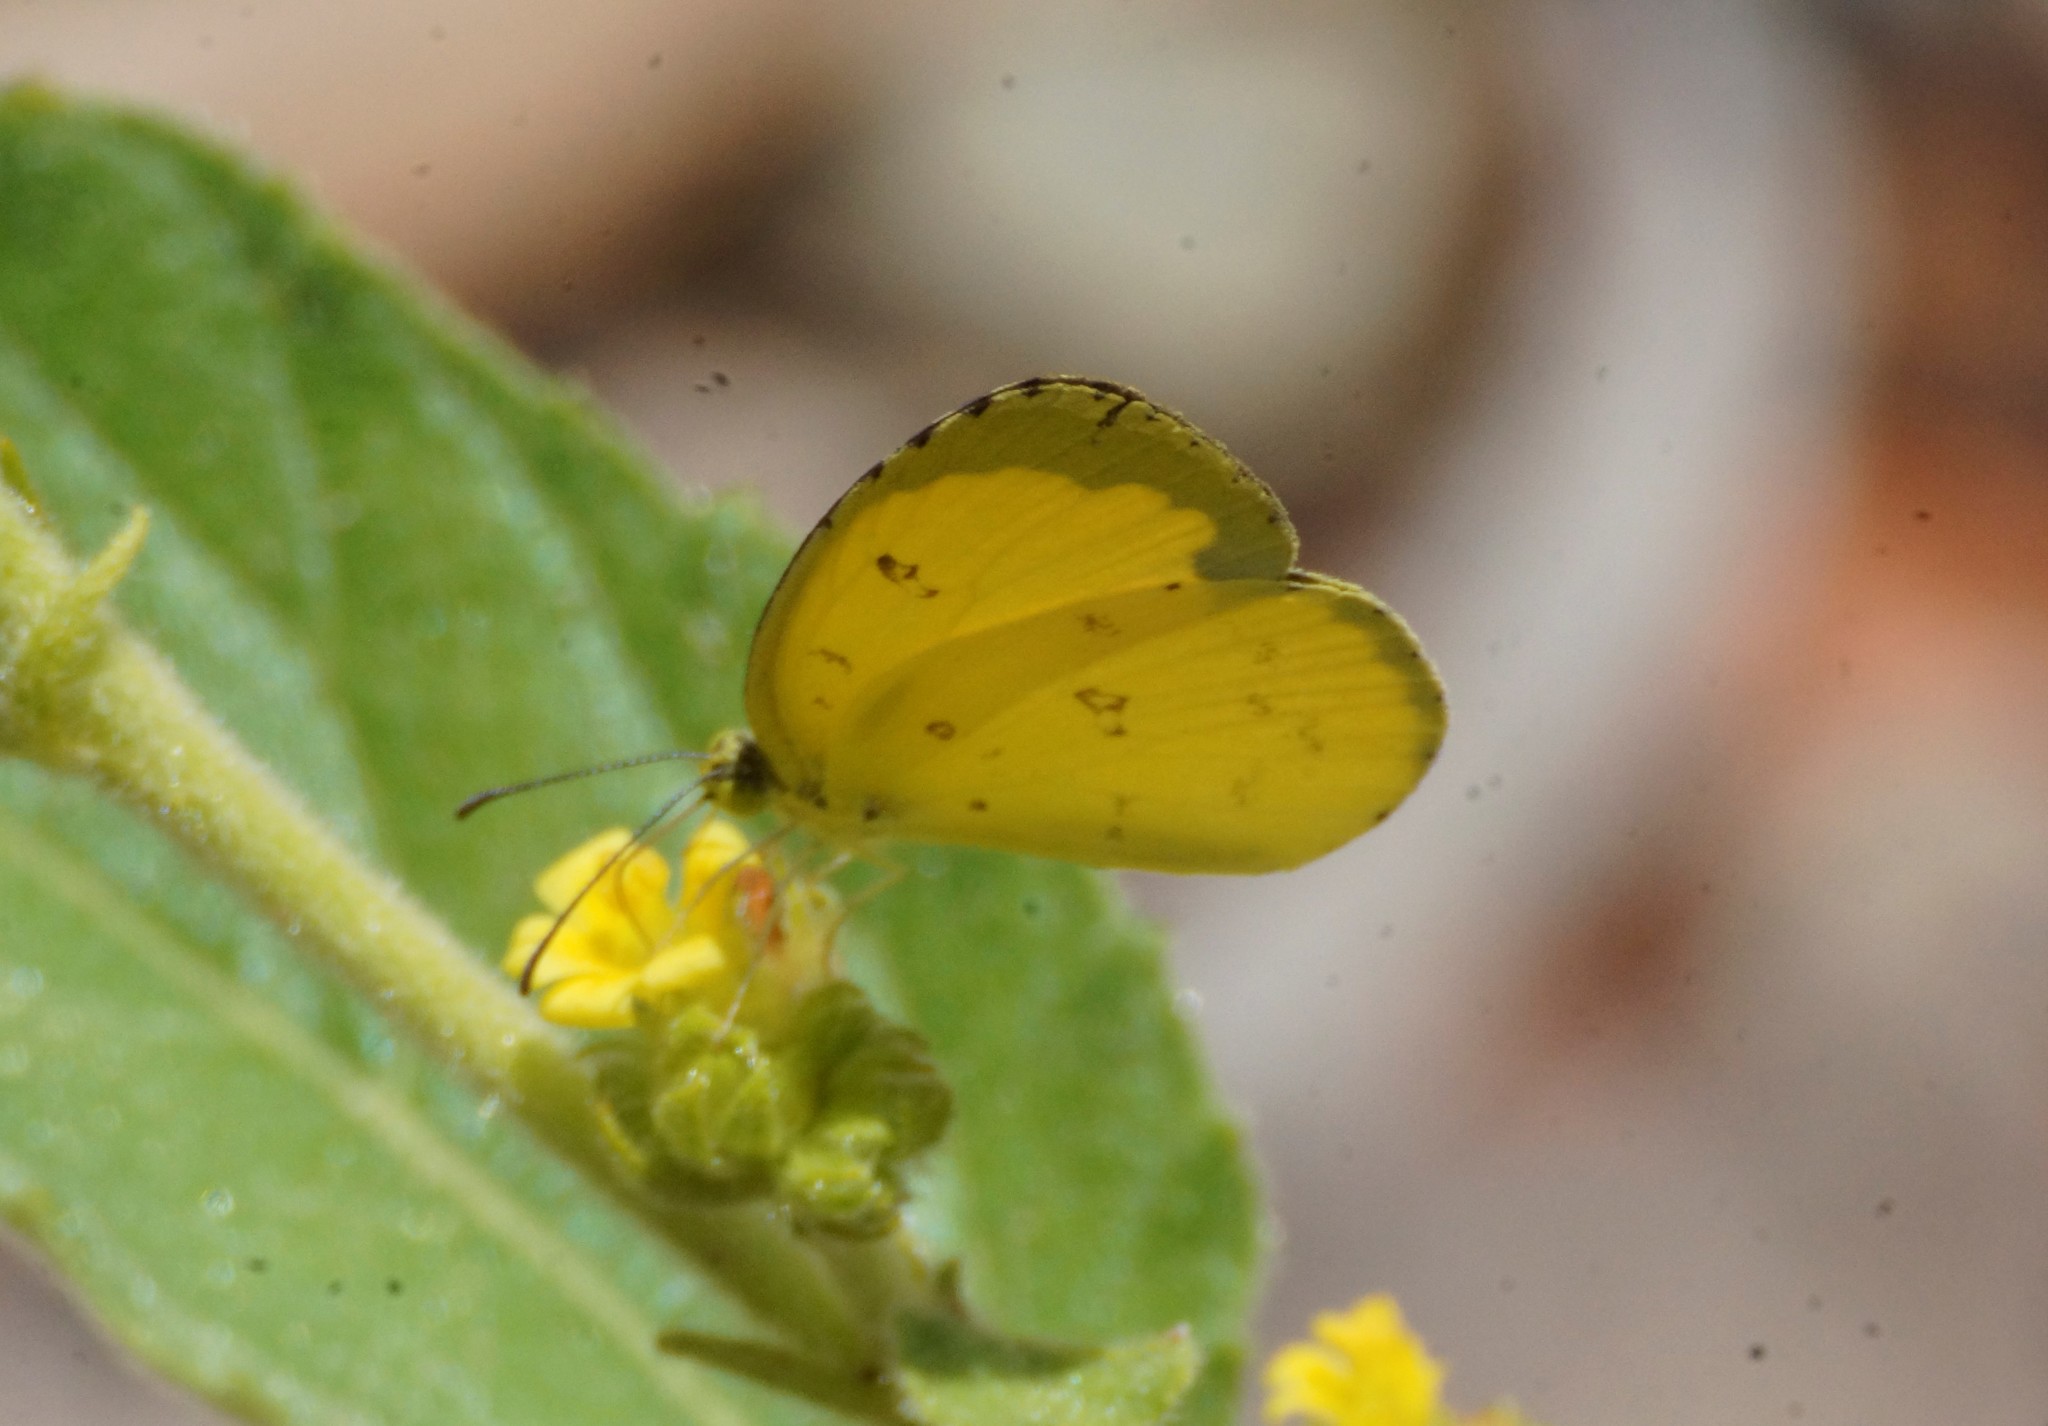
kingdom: Animalia
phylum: Arthropoda
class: Insecta
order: Lepidoptera
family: Pieridae
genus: Eurema
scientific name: Eurema hecabe
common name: Pale grass yellow
